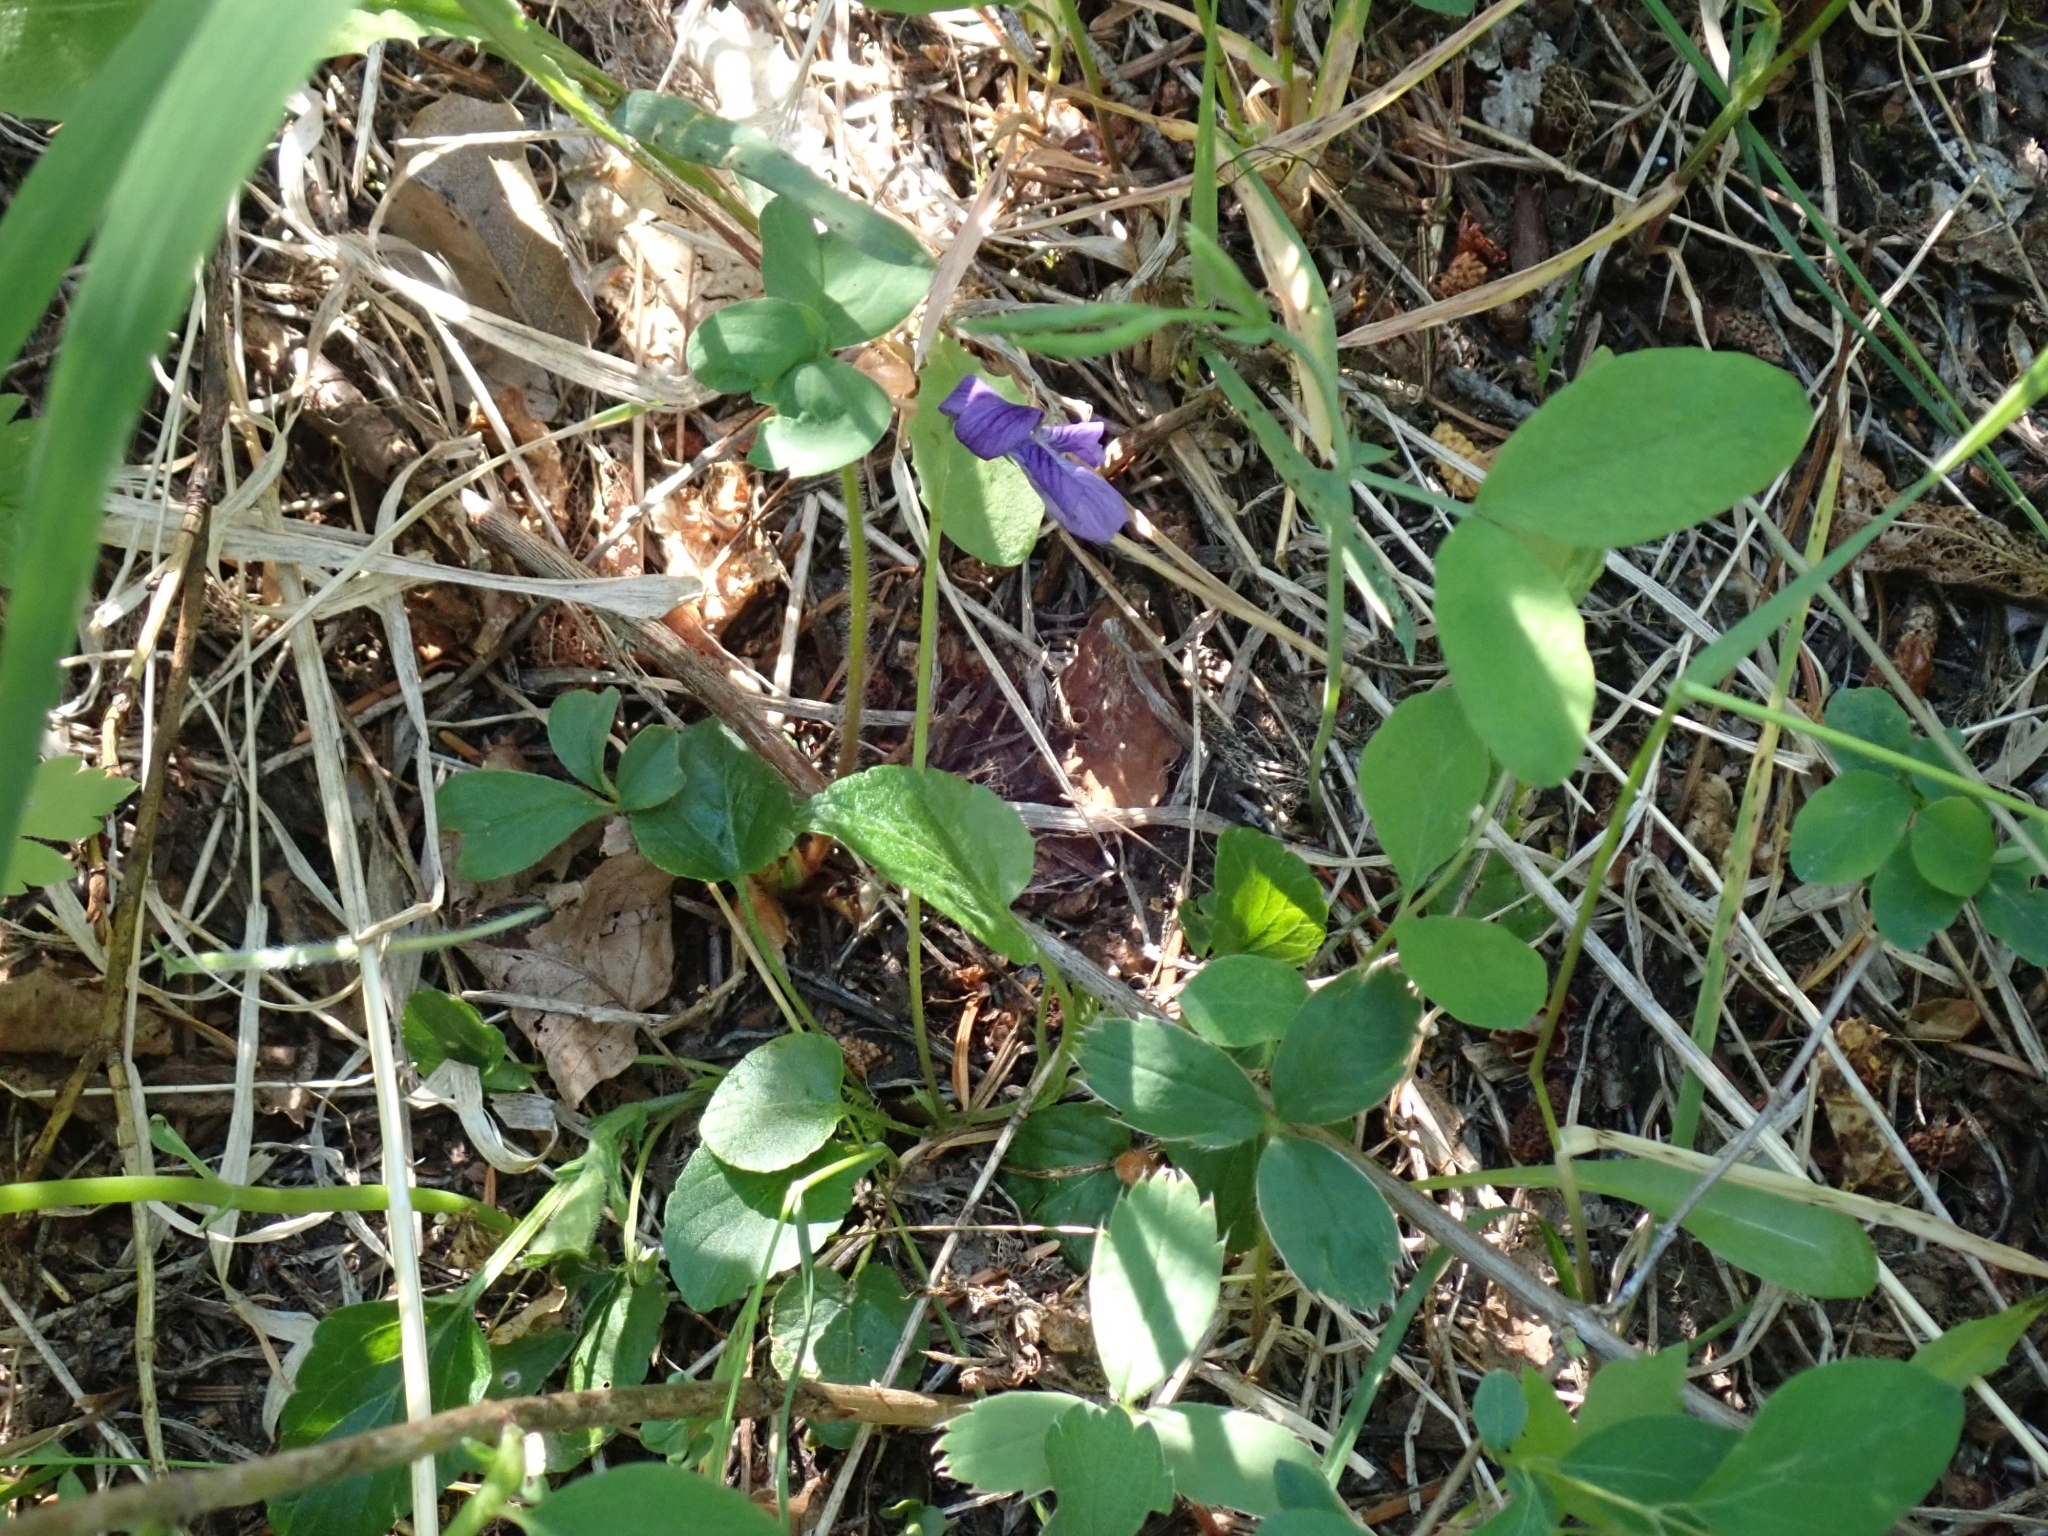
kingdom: Plantae
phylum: Tracheophyta
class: Magnoliopsida
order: Malpighiales
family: Violaceae
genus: Viola
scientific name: Viola adunca
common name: Sand violet
